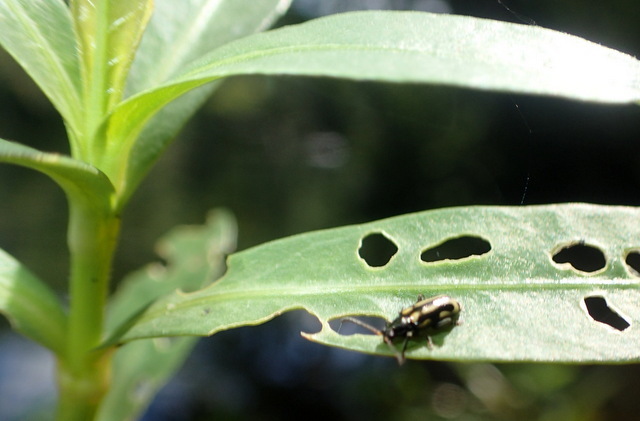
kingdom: Animalia
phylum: Arthropoda
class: Insecta
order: Coleoptera
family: Chrysomelidae
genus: Agasicles
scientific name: Agasicles hygrophila
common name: Alligatorweed flea beetle
